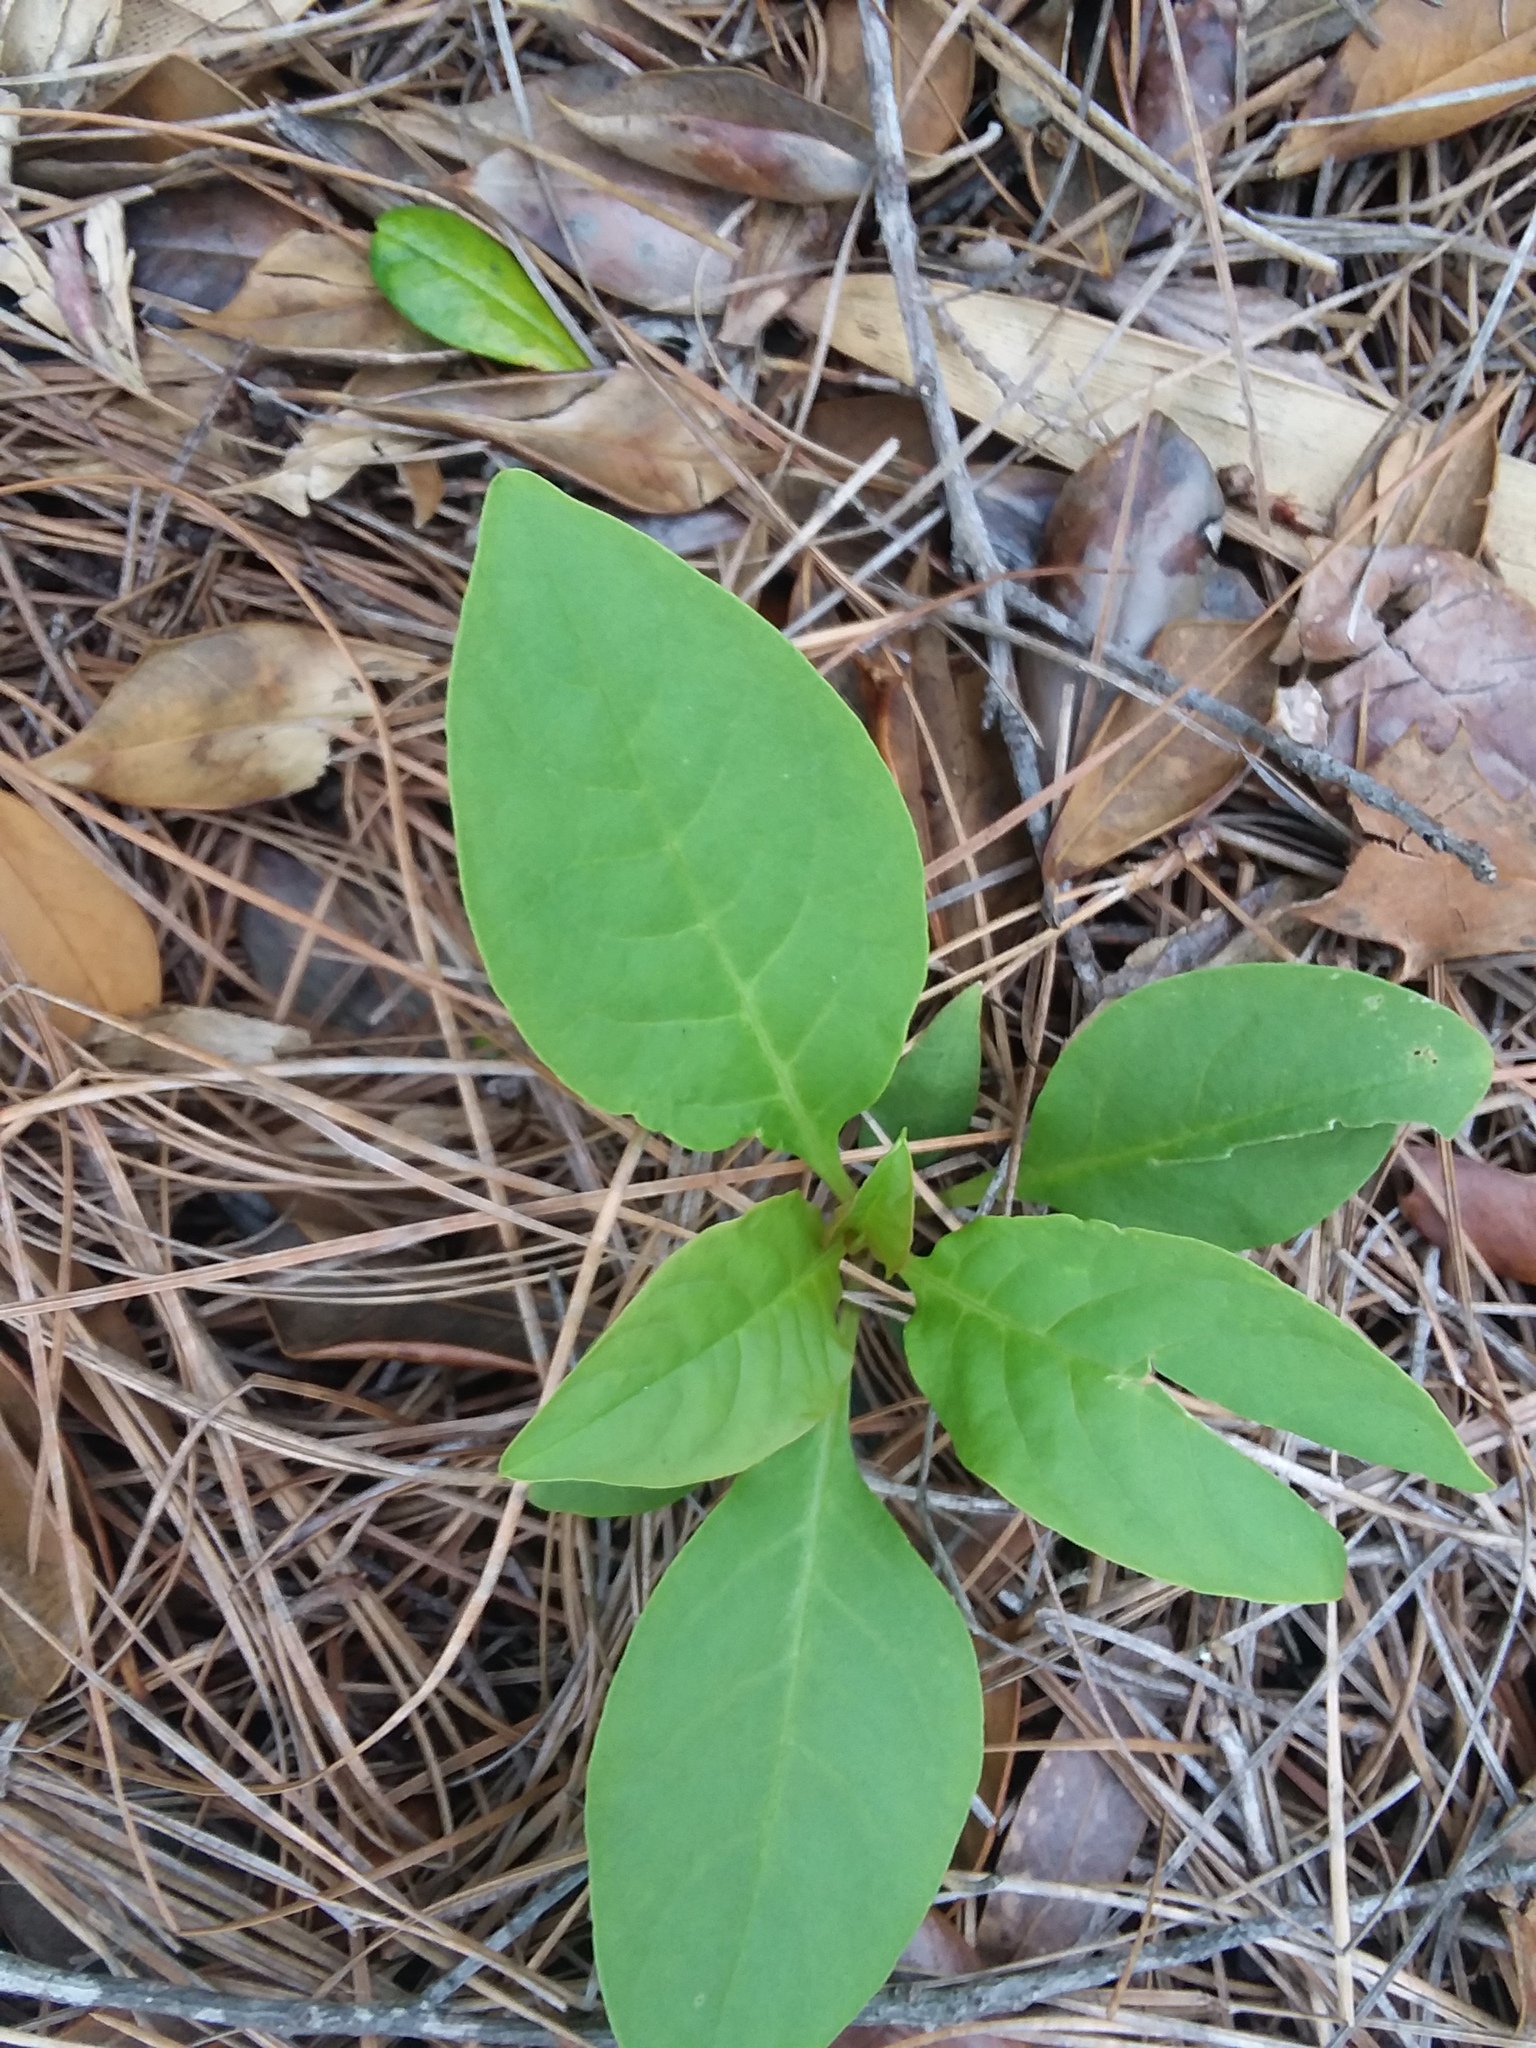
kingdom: Plantae
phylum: Tracheophyta
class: Magnoliopsida
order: Caryophyllales
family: Phytolaccaceae
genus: Phytolacca
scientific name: Phytolacca americana
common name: American pokeweed
